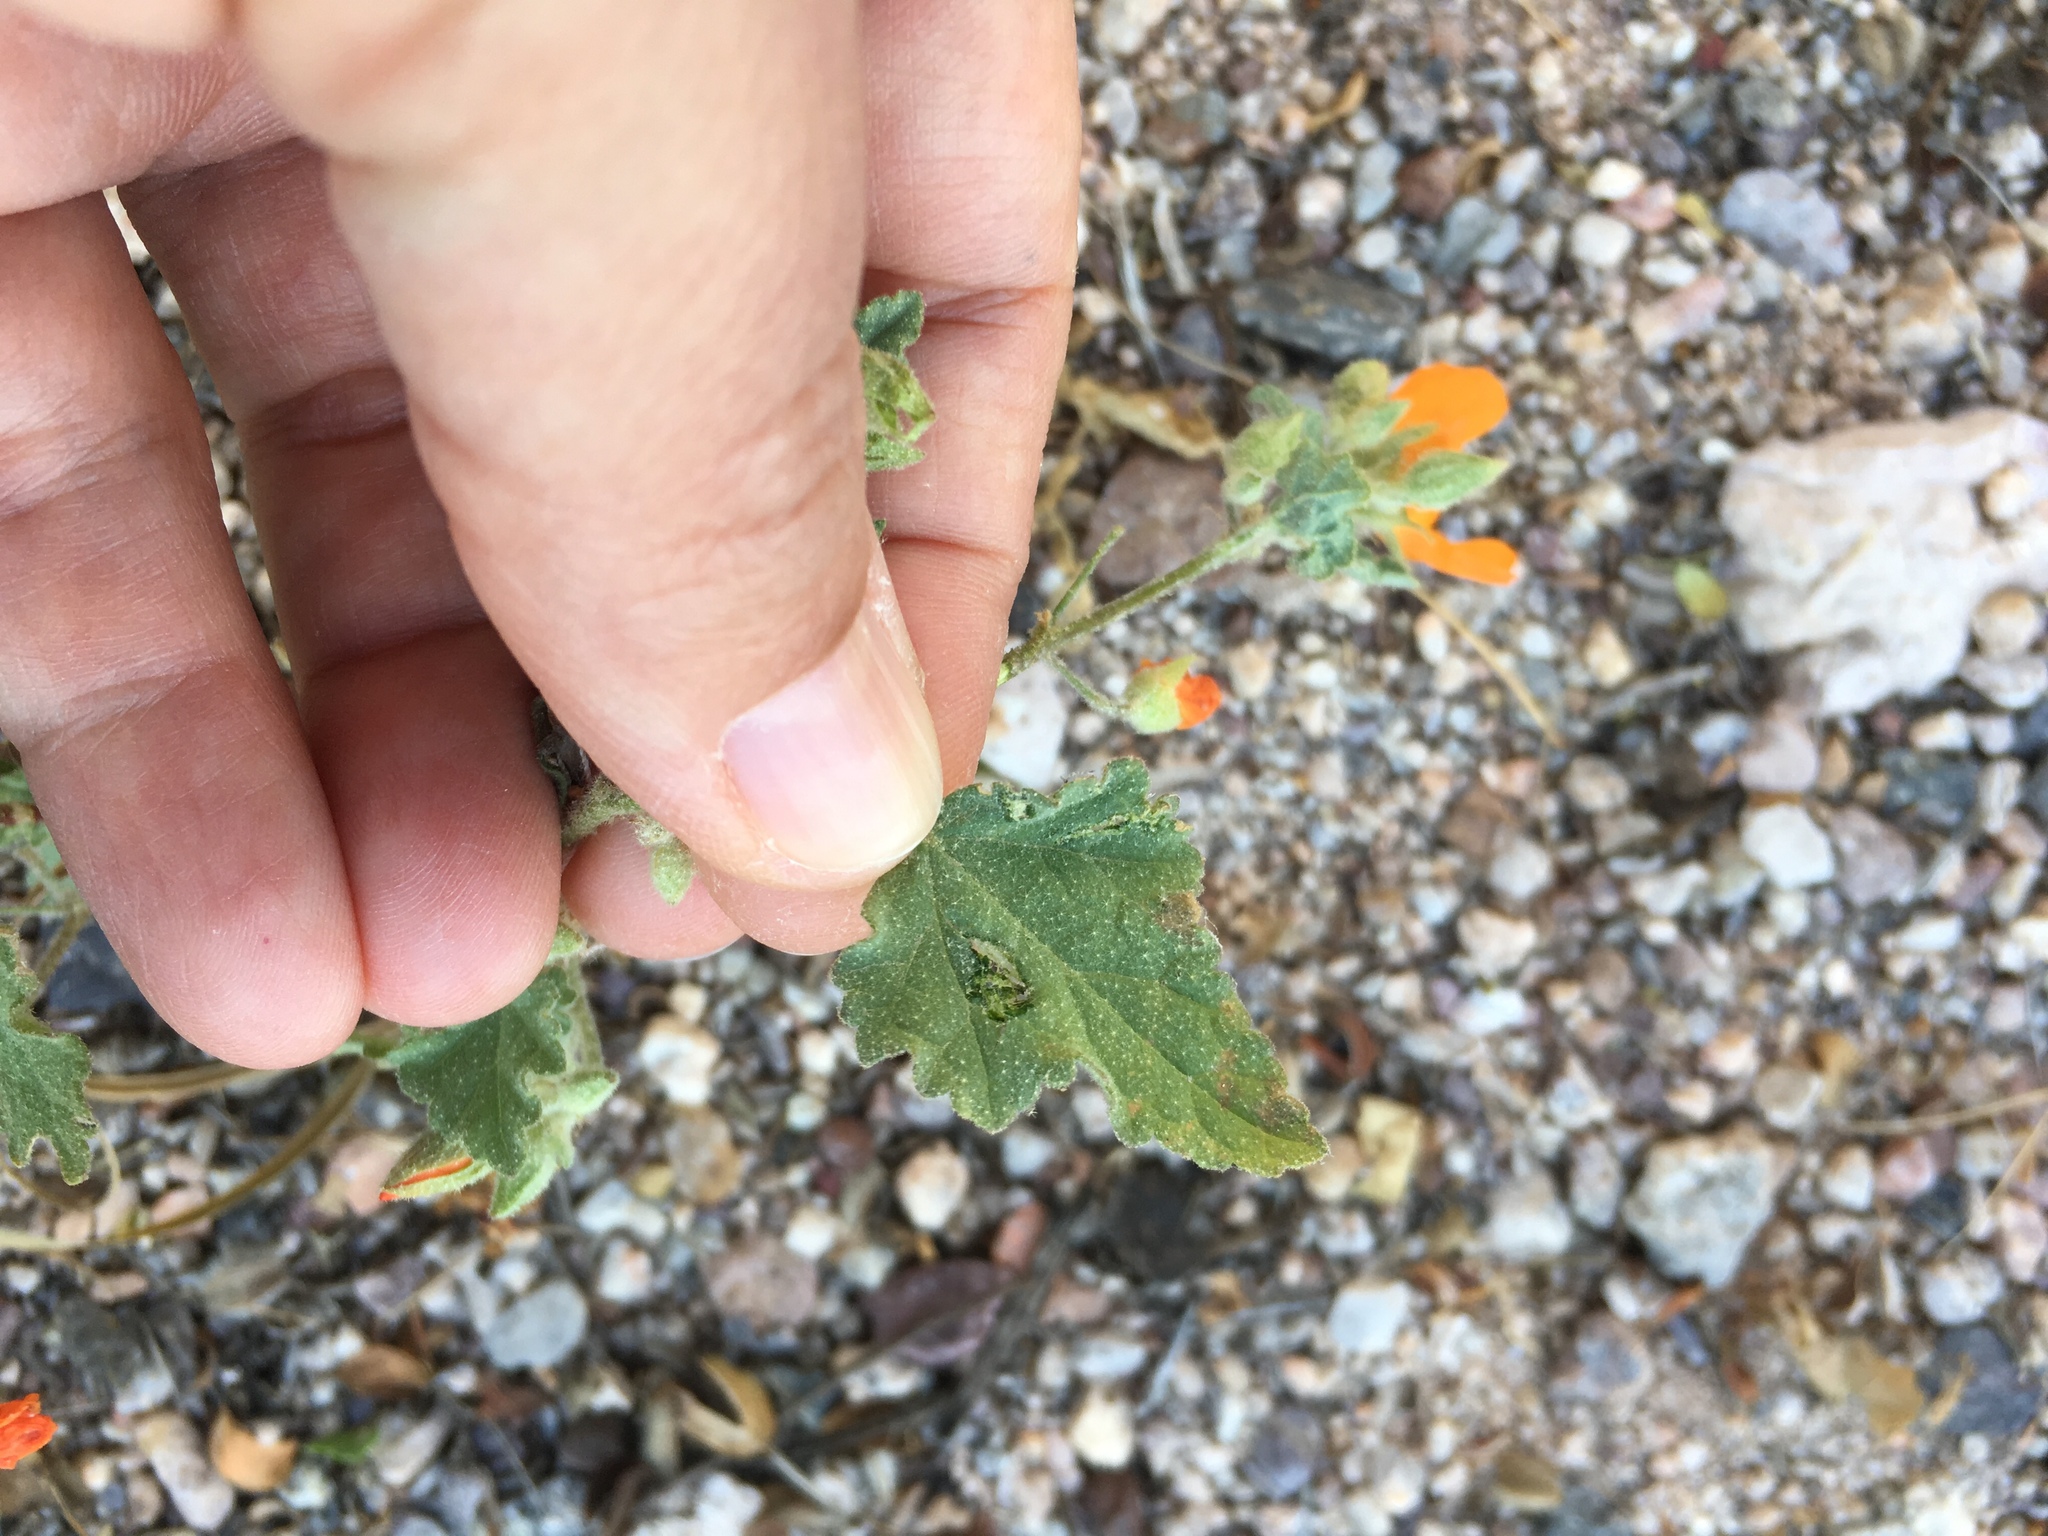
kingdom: Plantae
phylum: Tracheophyta
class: Magnoliopsida
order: Malvales
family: Malvaceae
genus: Sphaeralcea
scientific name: Sphaeralcea coulteri
